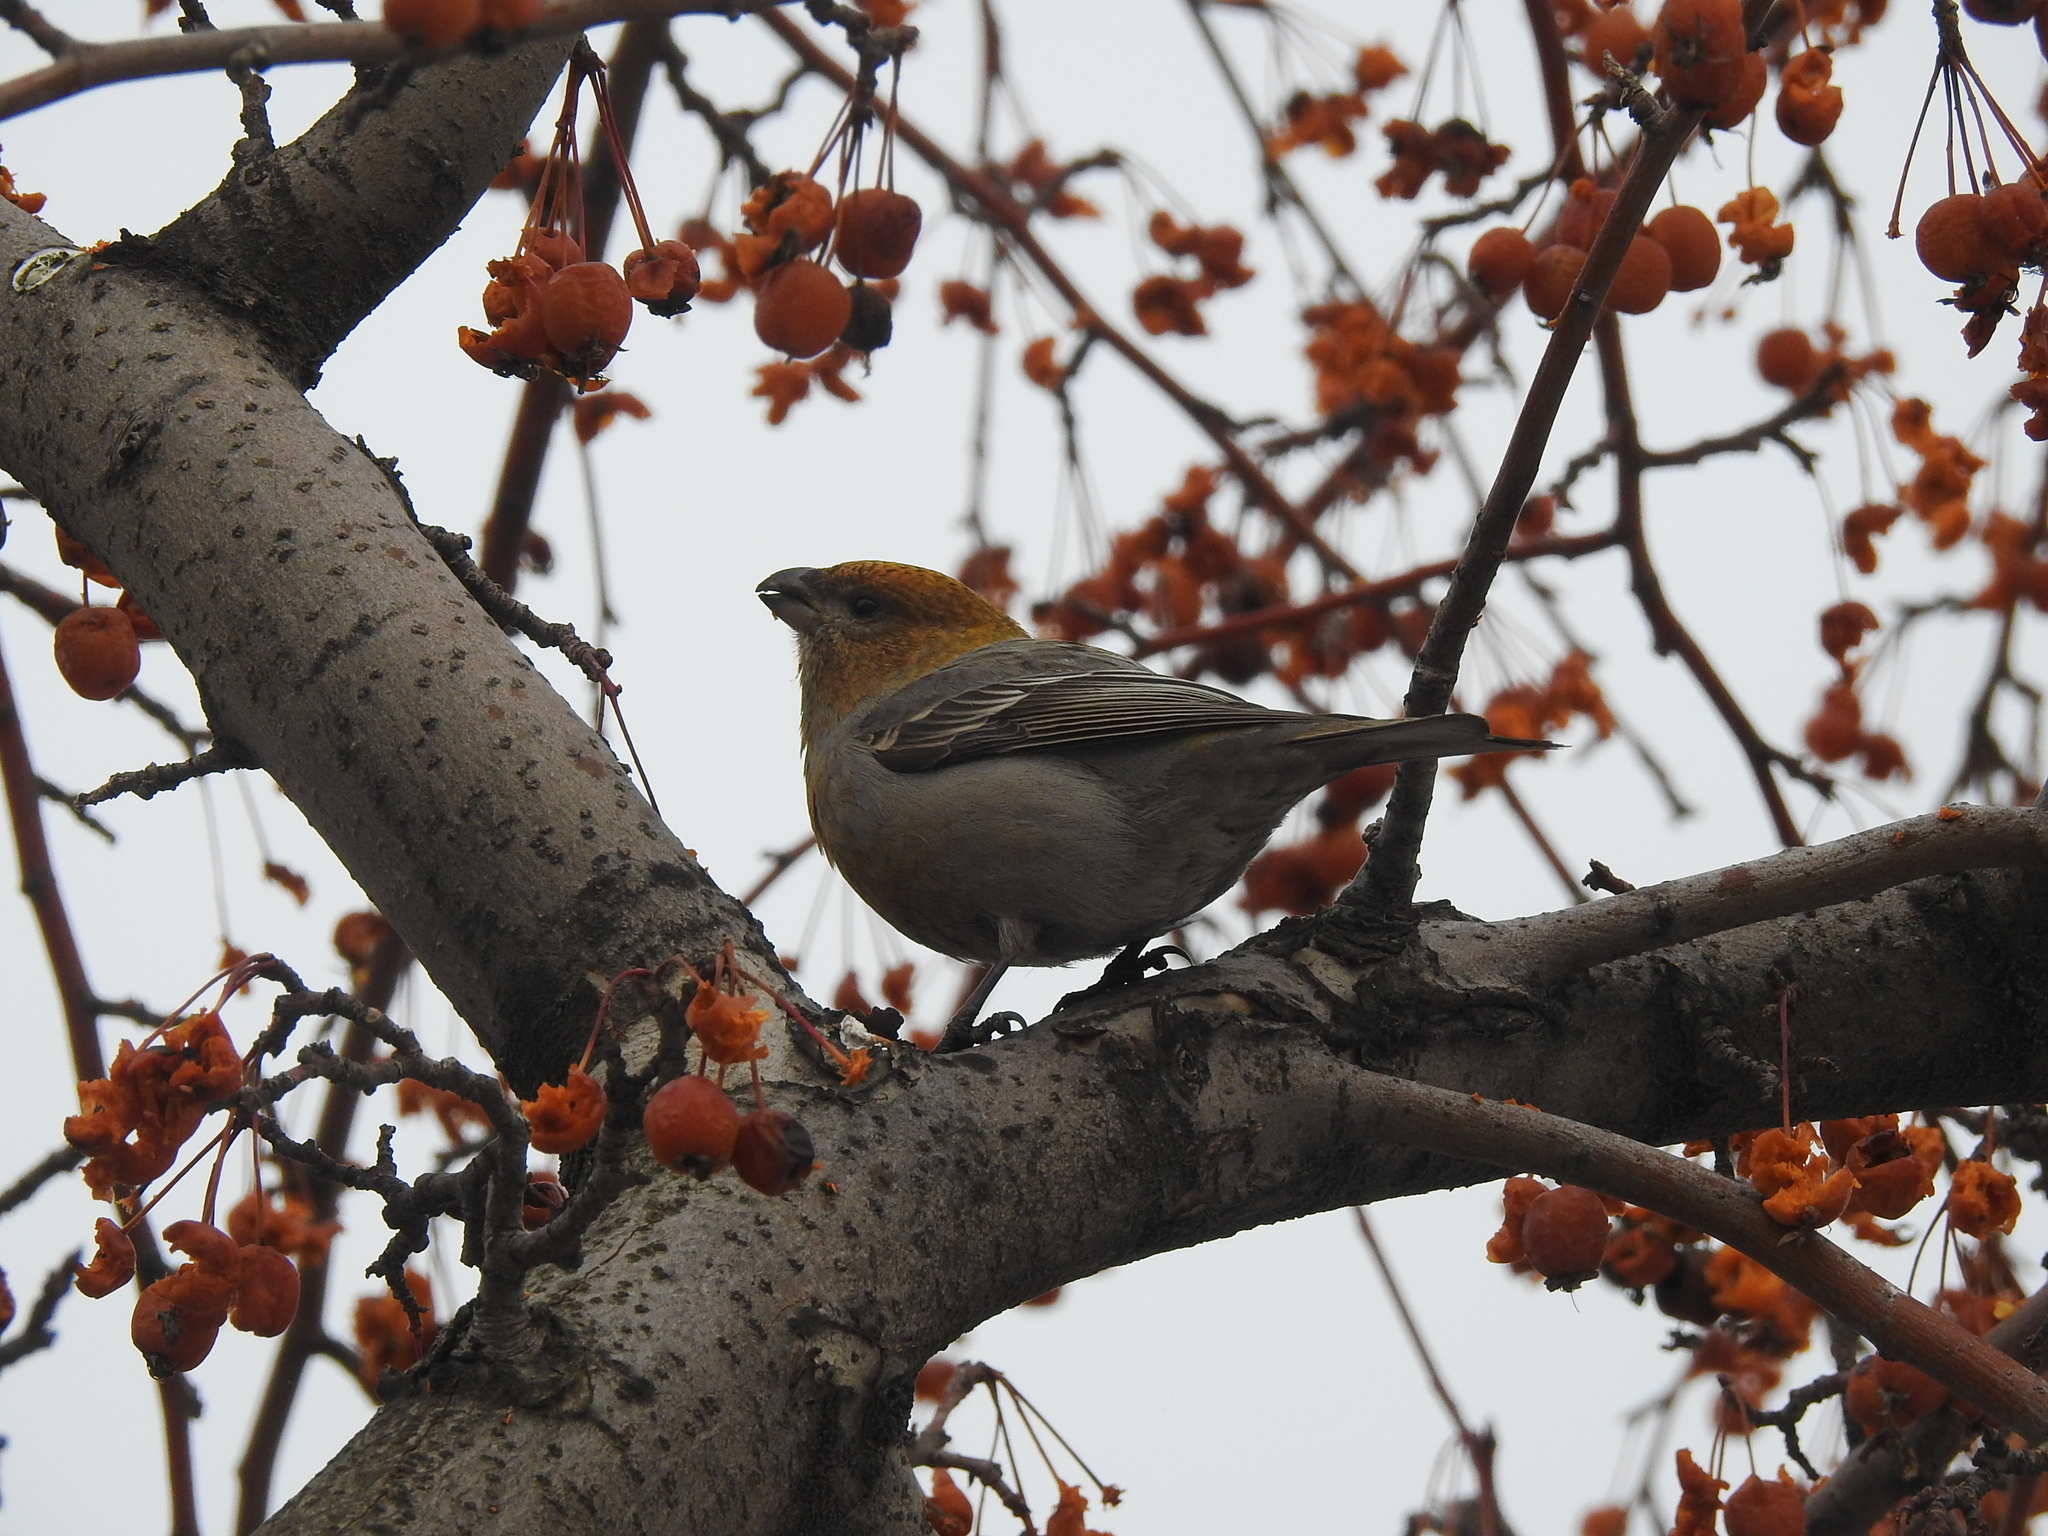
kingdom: Animalia
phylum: Chordata
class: Aves
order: Passeriformes
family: Fringillidae
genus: Pinicola
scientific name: Pinicola enucleator
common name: Pine grosbeak
